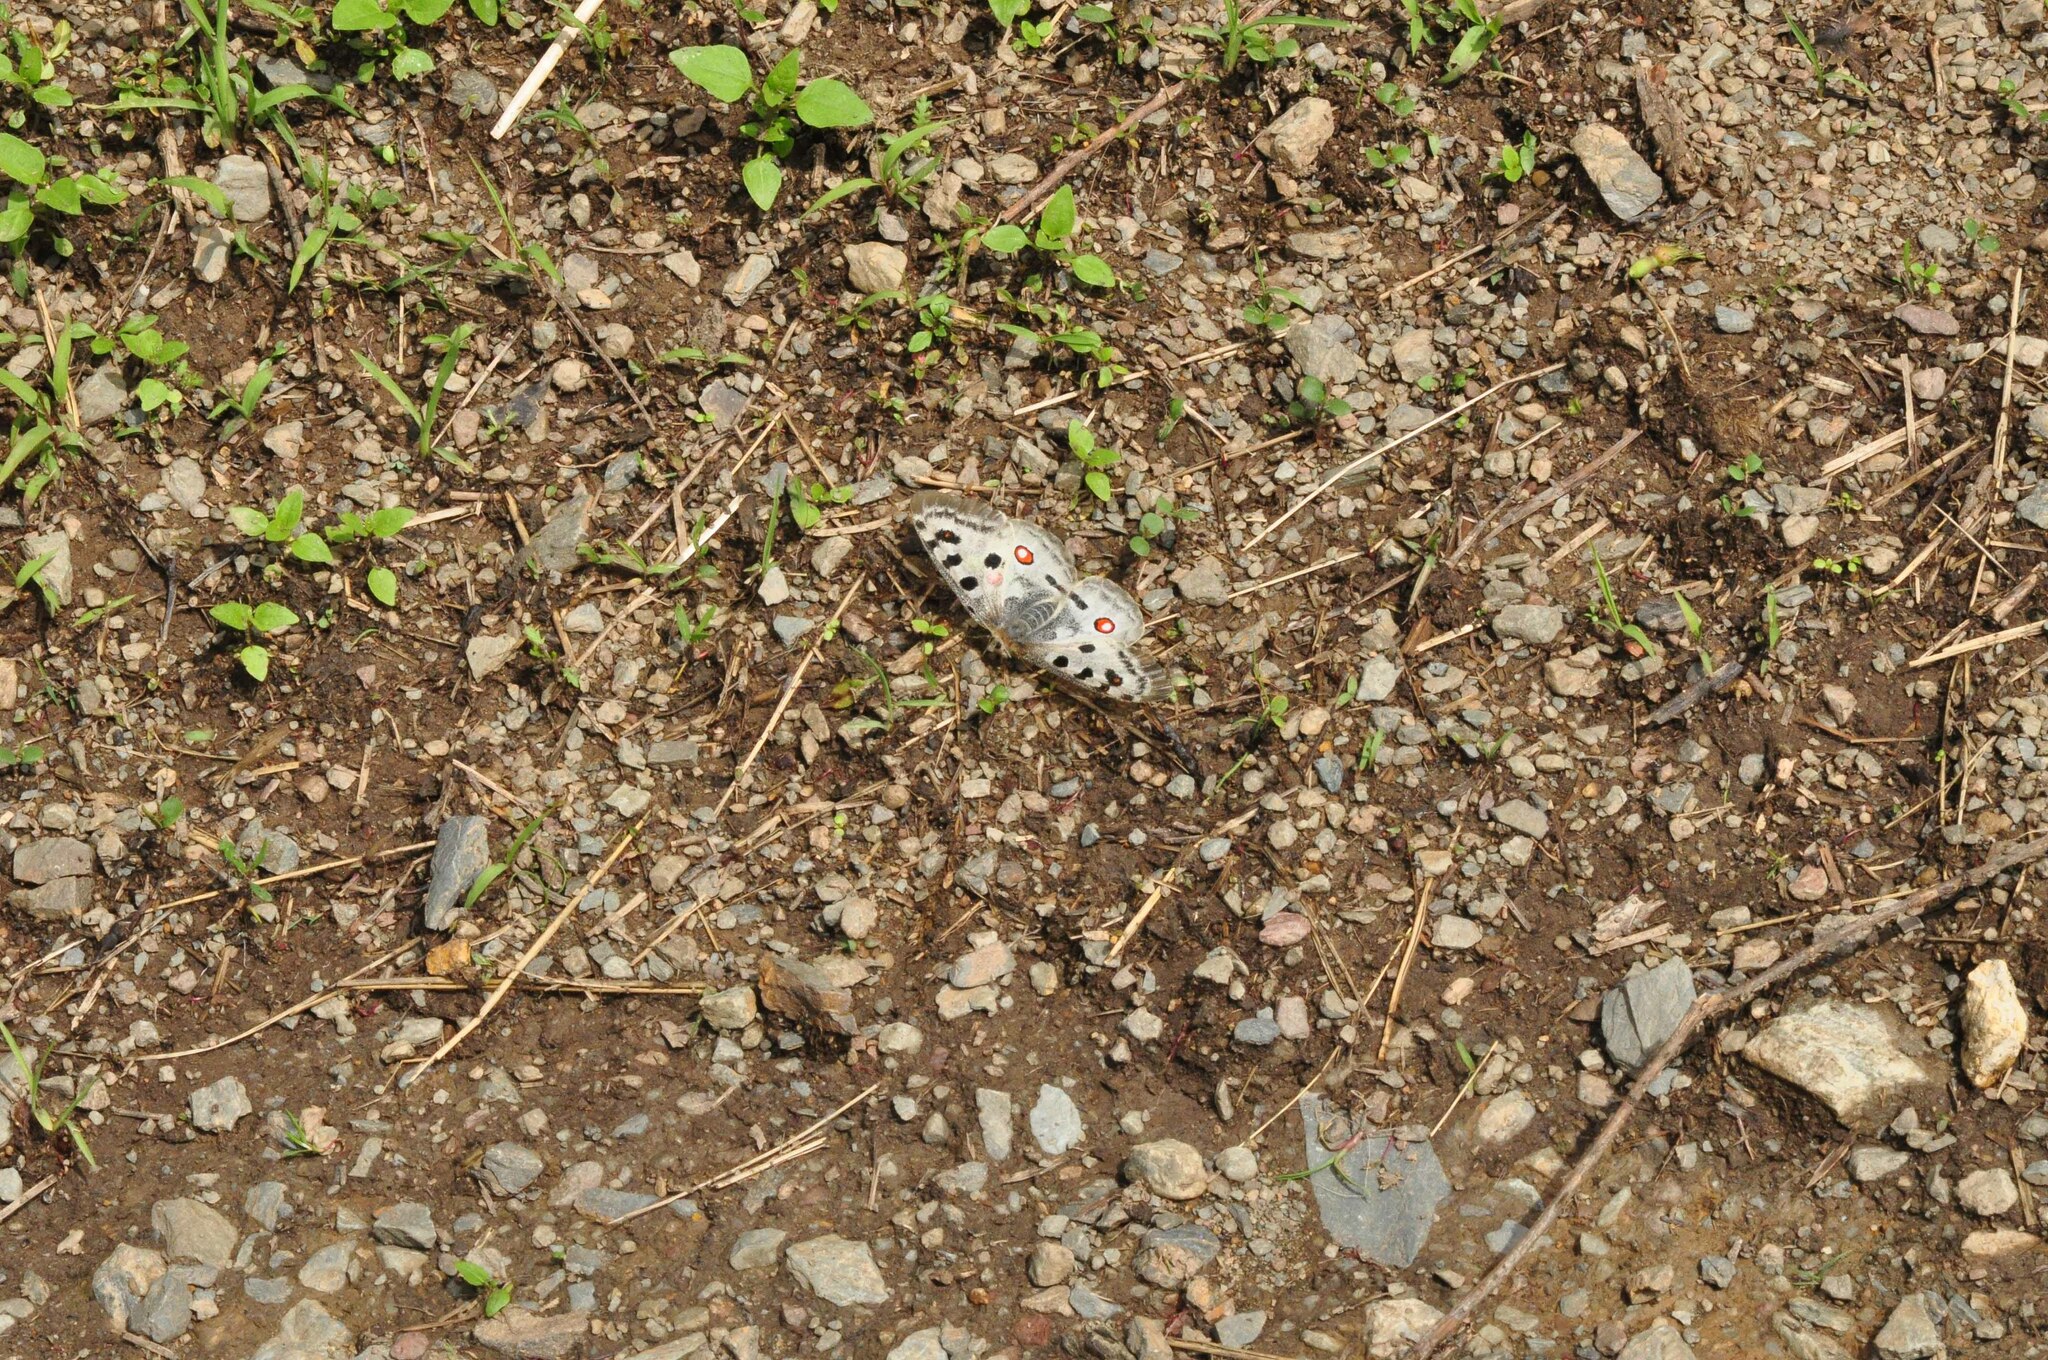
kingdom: Animalia
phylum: Arthropoda
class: Insecta
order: Lepidoptera
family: Papilionidae
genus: Parnassius
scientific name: Parnassius apollo
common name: Apollo
